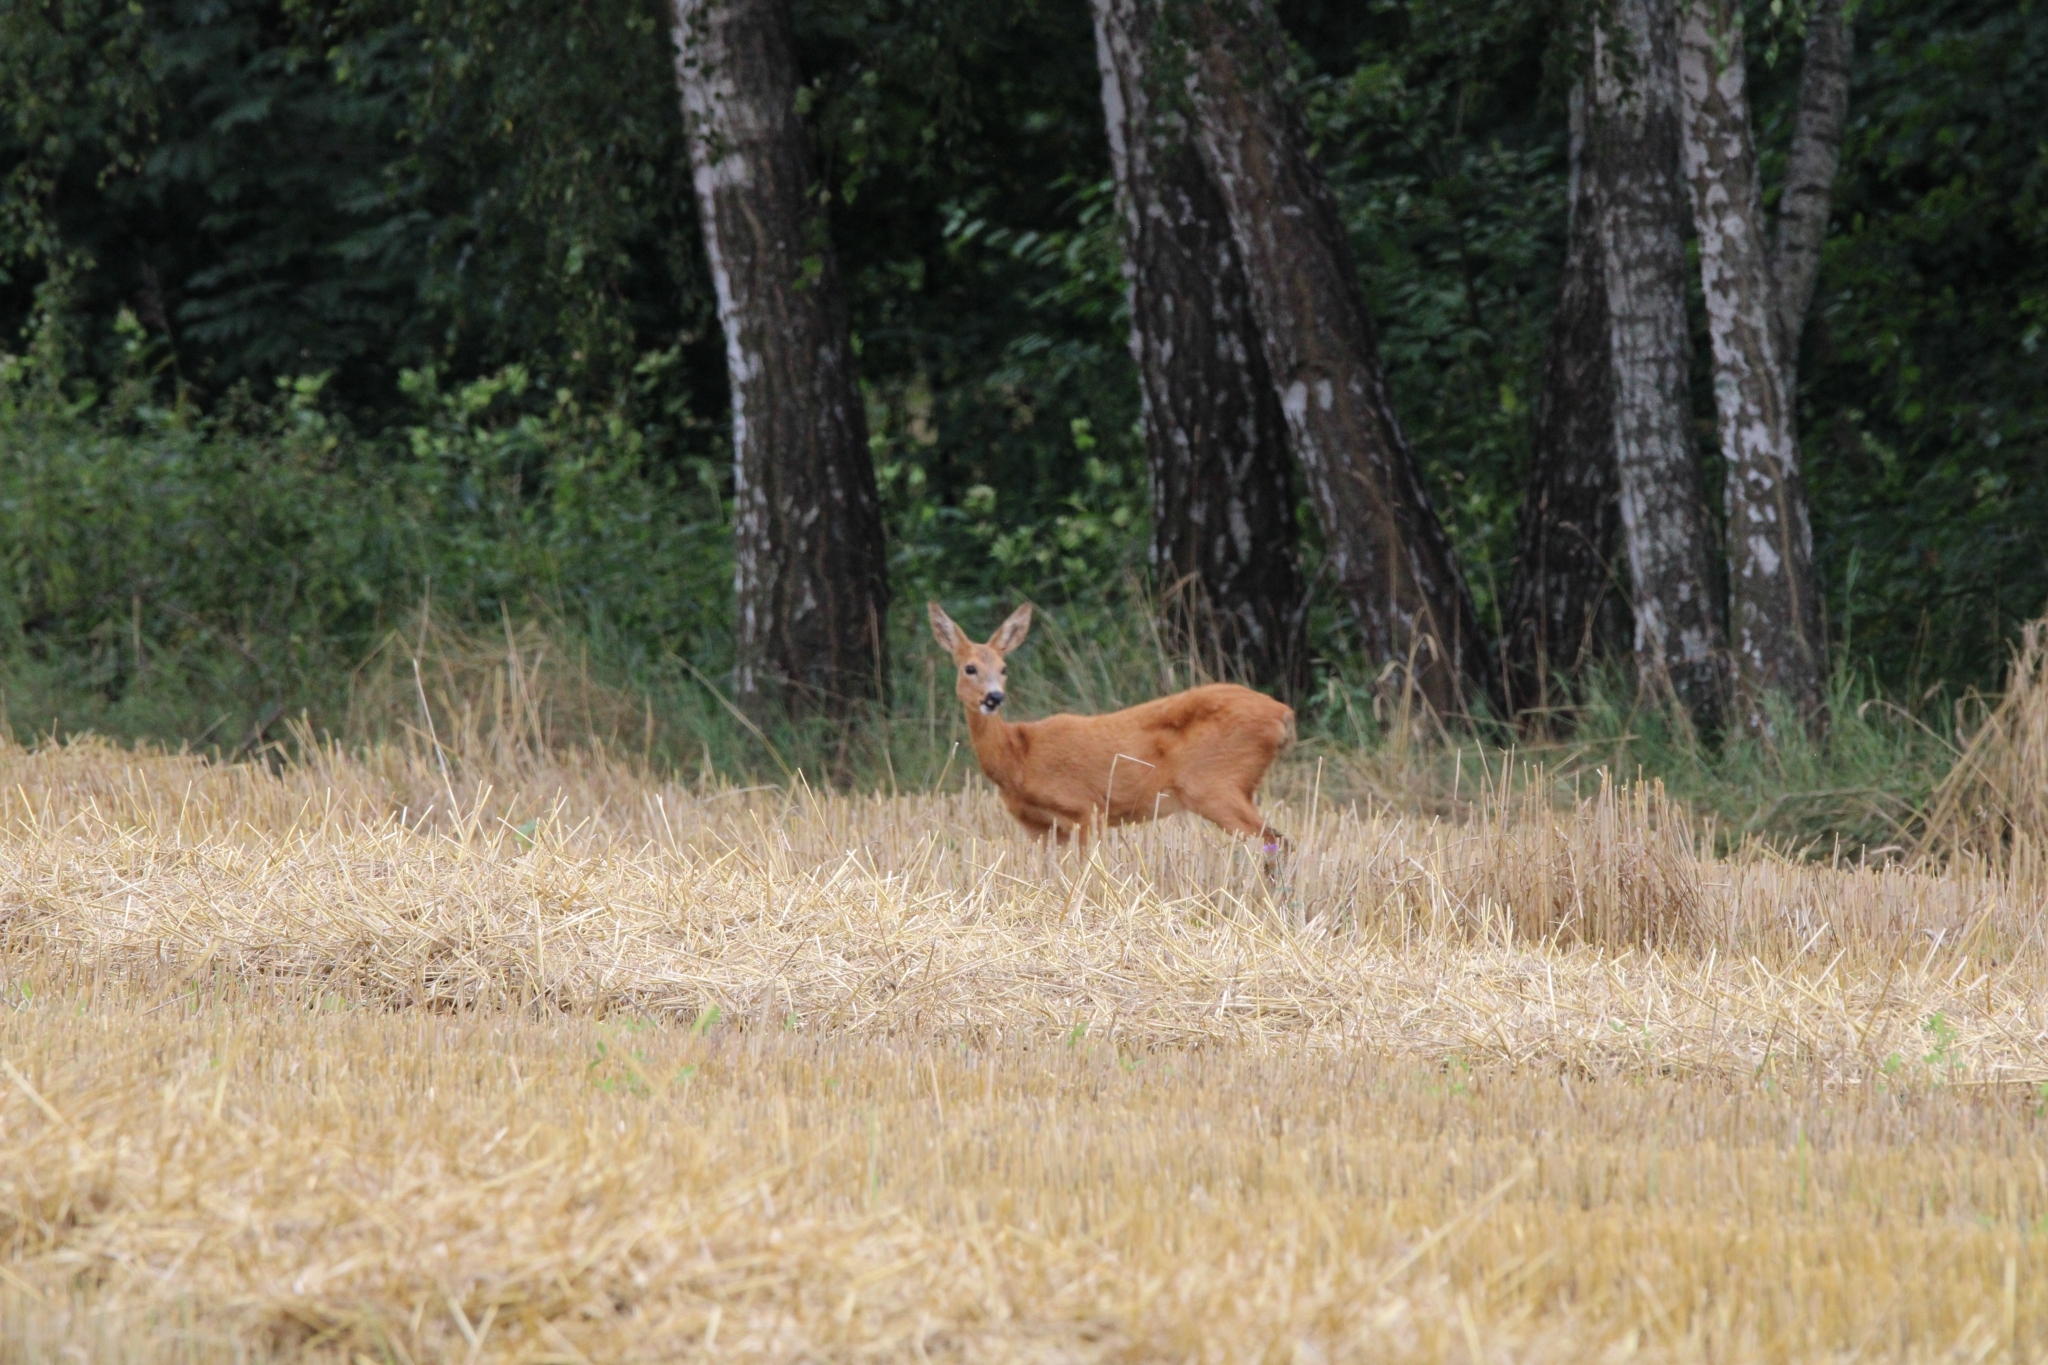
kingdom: Animalia
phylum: Chordata
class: Mammalia
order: Artiodactyla
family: Cervidae
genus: Capreolus
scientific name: Capreolus capreolus
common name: Western roe deer
